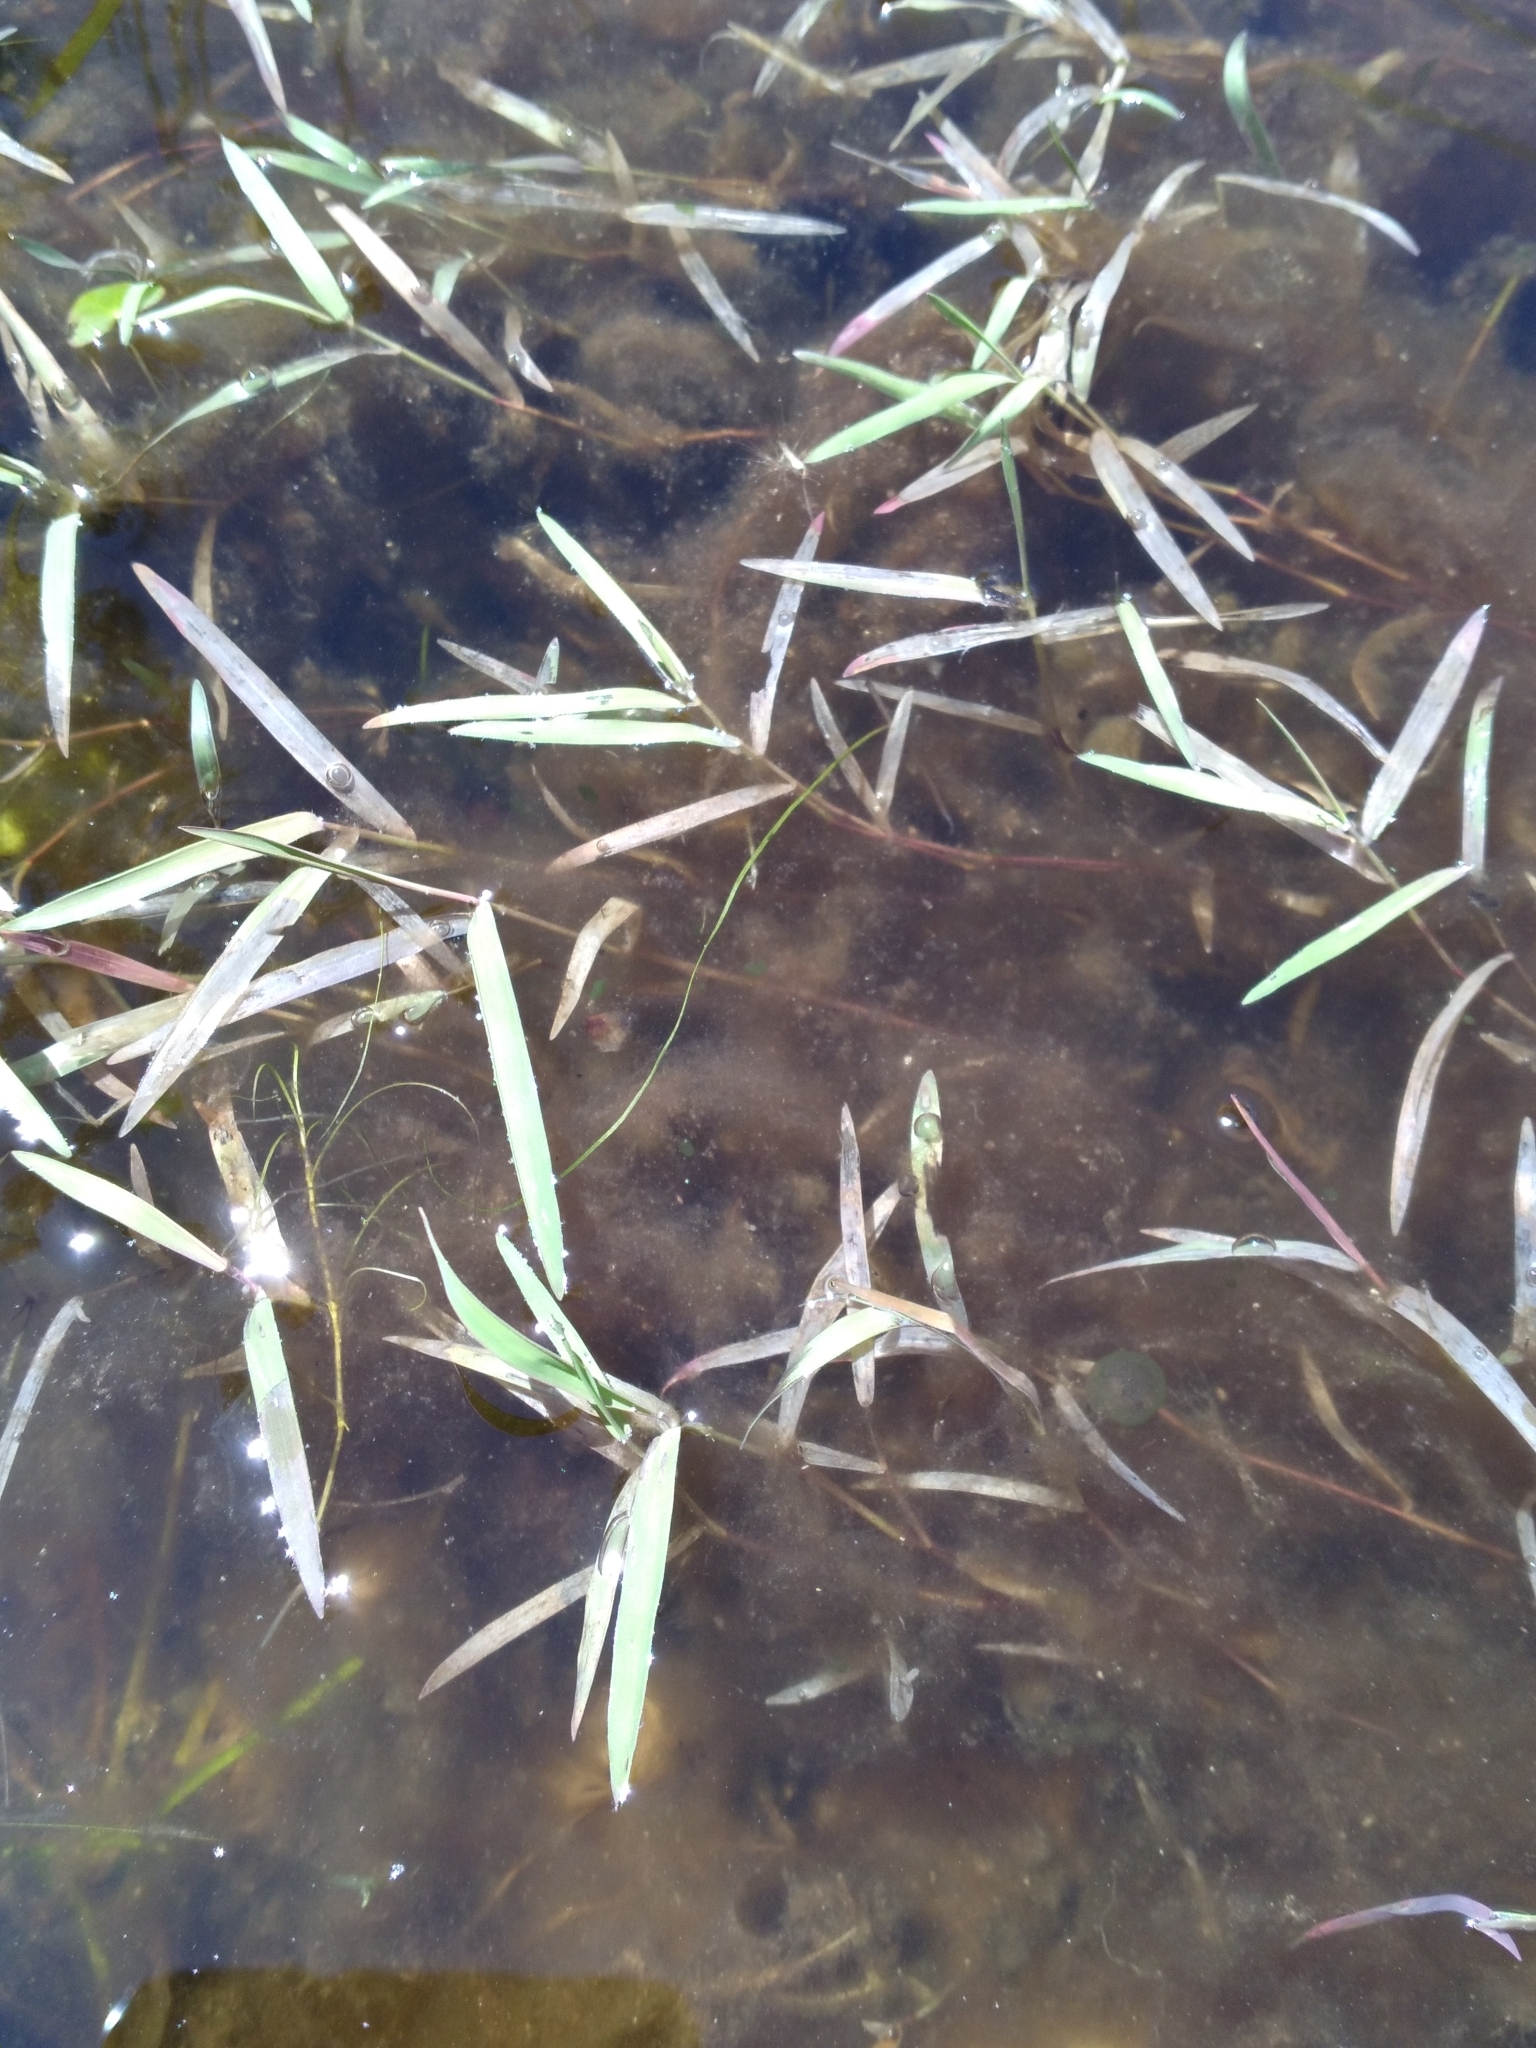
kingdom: Plantae
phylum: Tracheophyta
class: Liliopsida
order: Poales
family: Poaceae
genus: Luziola
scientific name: Luziola fluitans
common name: Silverleaf grass
